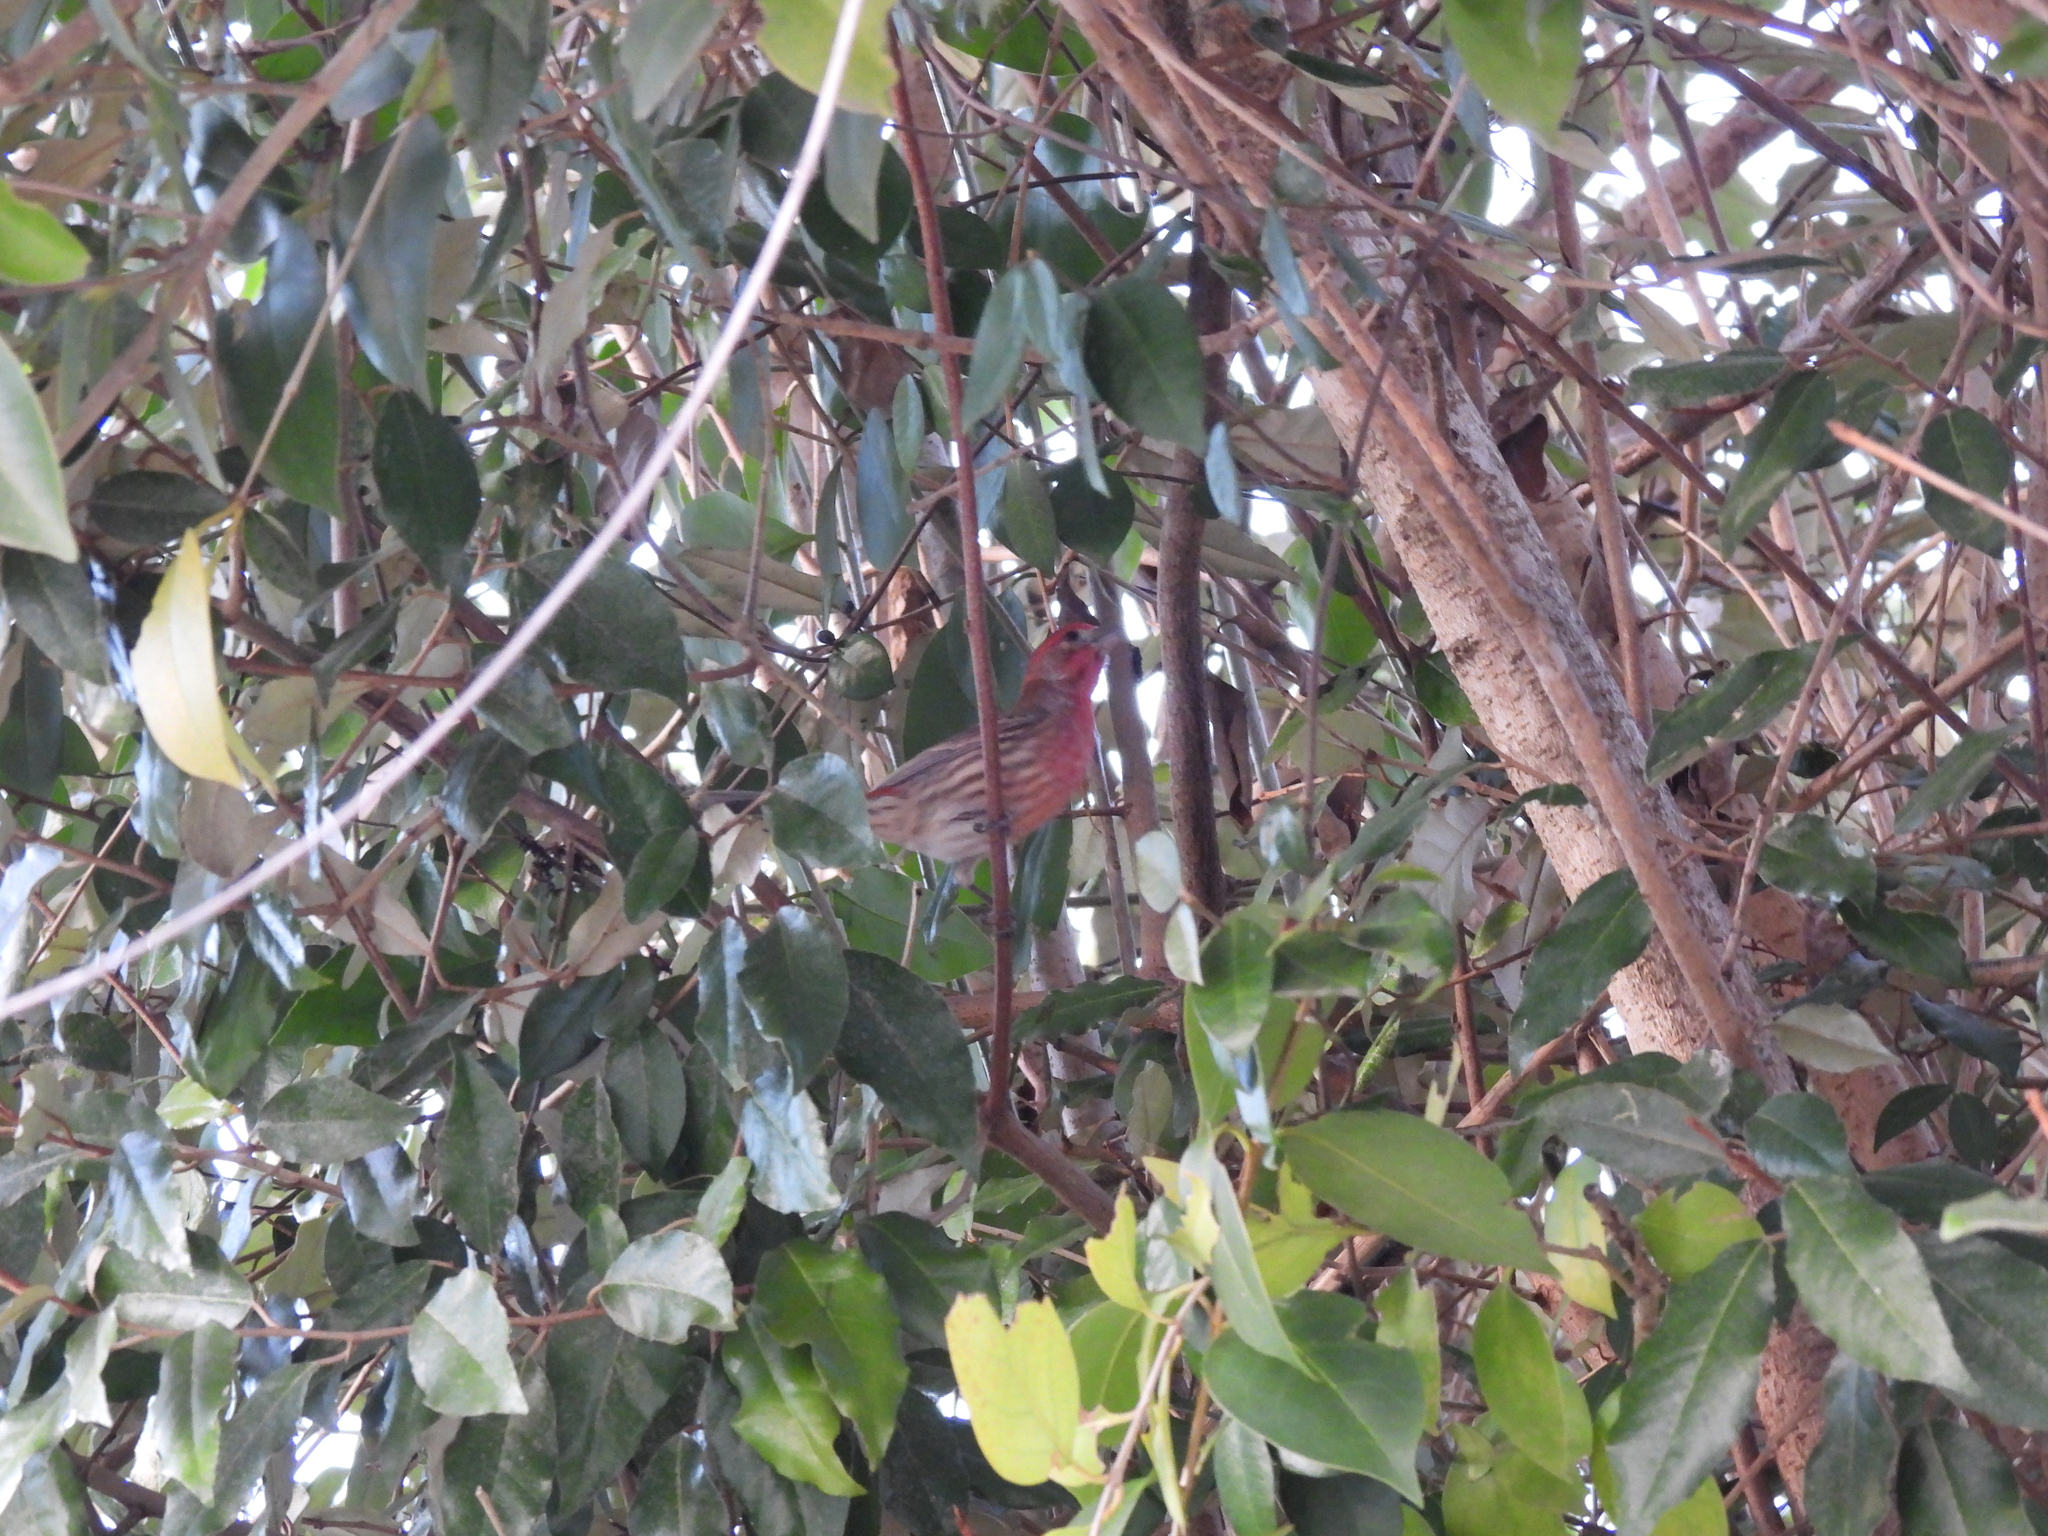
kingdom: Animalia
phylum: Chordata
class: Aves
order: Passeriformes
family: Fringillidae
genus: Haemorhous
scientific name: Haemorhous mexicanus
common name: House finch
